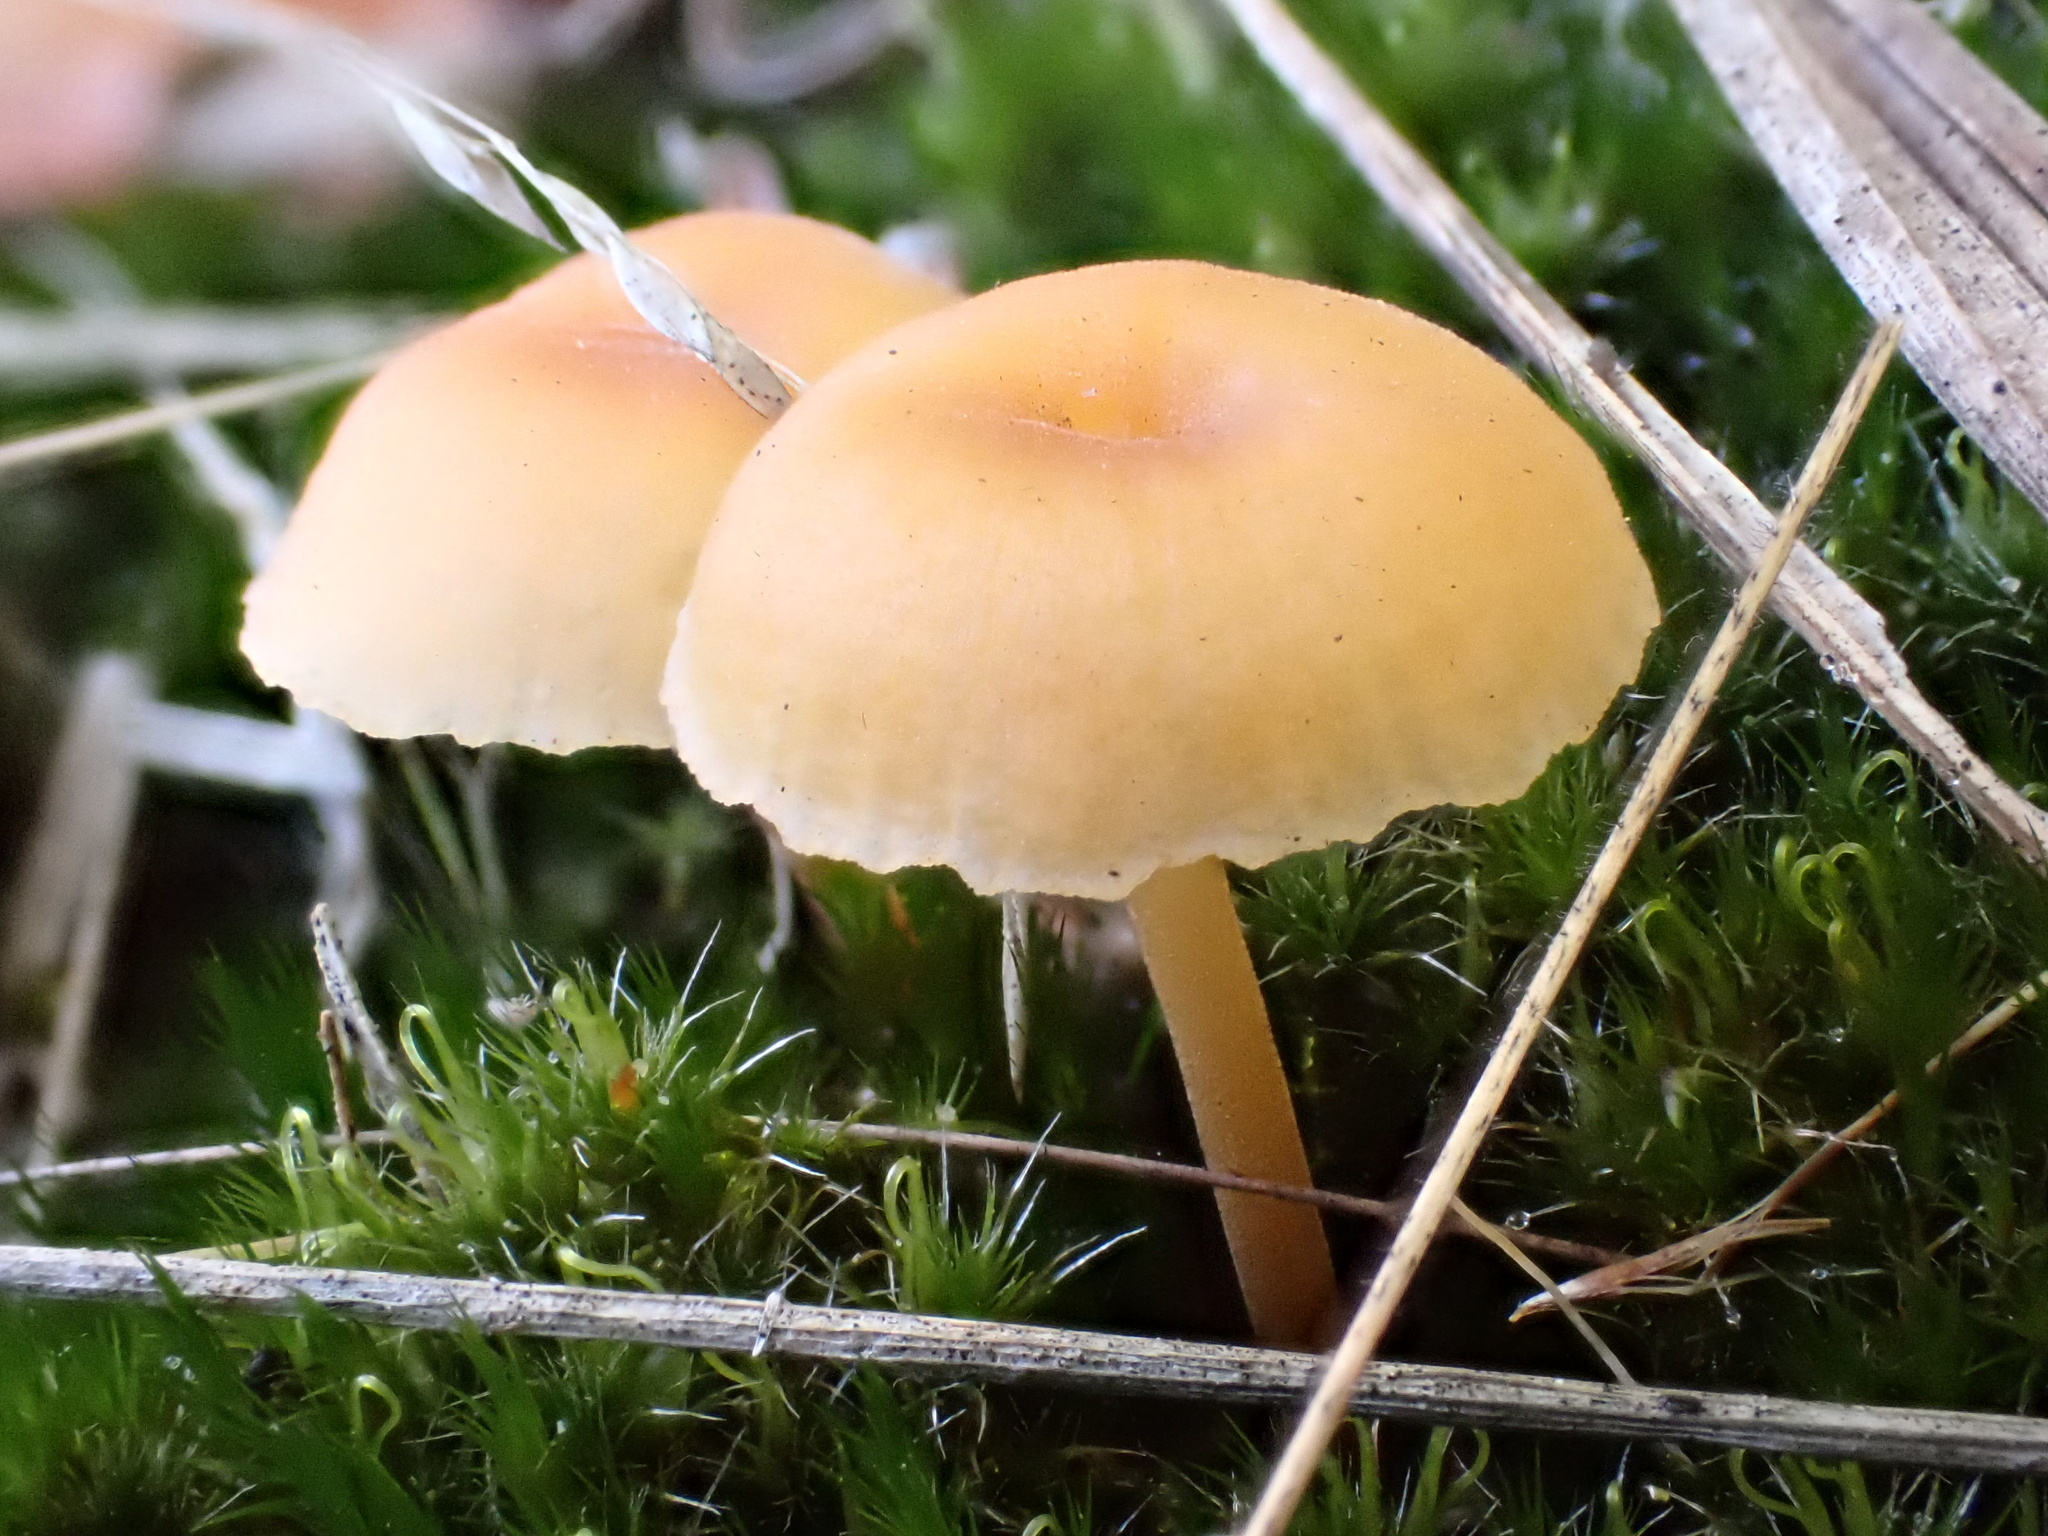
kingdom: Fungi
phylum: Basidiomycota
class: Agaricomycetes
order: Hymenochaetales
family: Rickenellaceae
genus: Rickenella
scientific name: Rickenella fibula
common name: Orange mosscap
